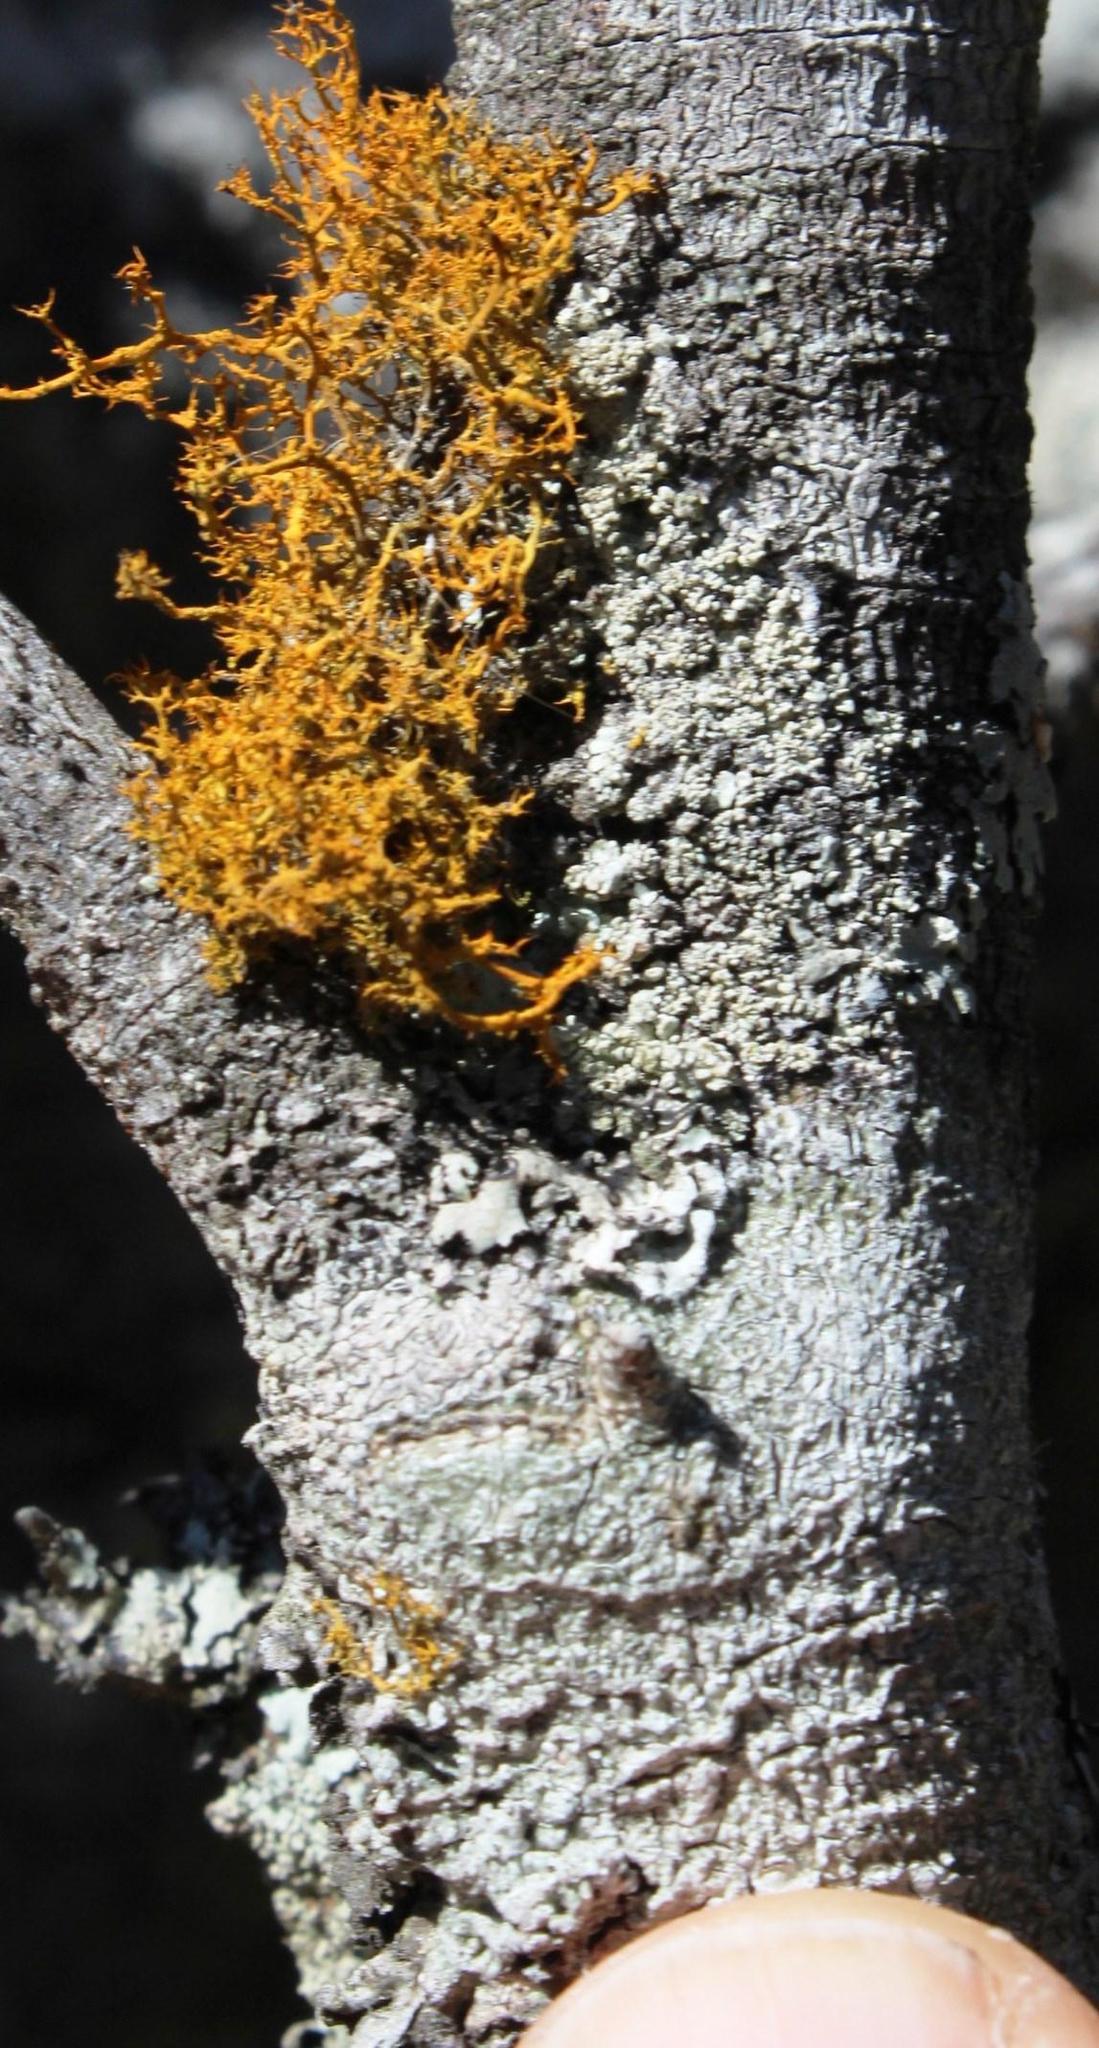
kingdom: Fungi
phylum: Ascomycota
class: Lecanoromycetes
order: Teloschistales
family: Teloschistaceae
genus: Teloschistes
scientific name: Teloschistes capensis
